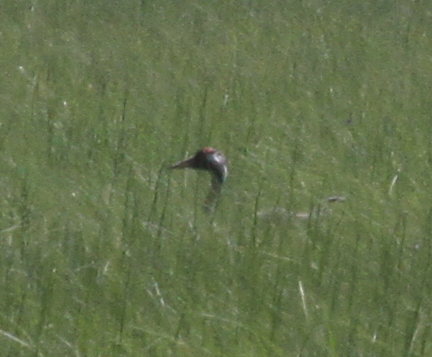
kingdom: Animalia
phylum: Chordata
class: Aves
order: Gruiformes
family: Gruidae
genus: Grus
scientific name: Grus grus
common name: Common crane
